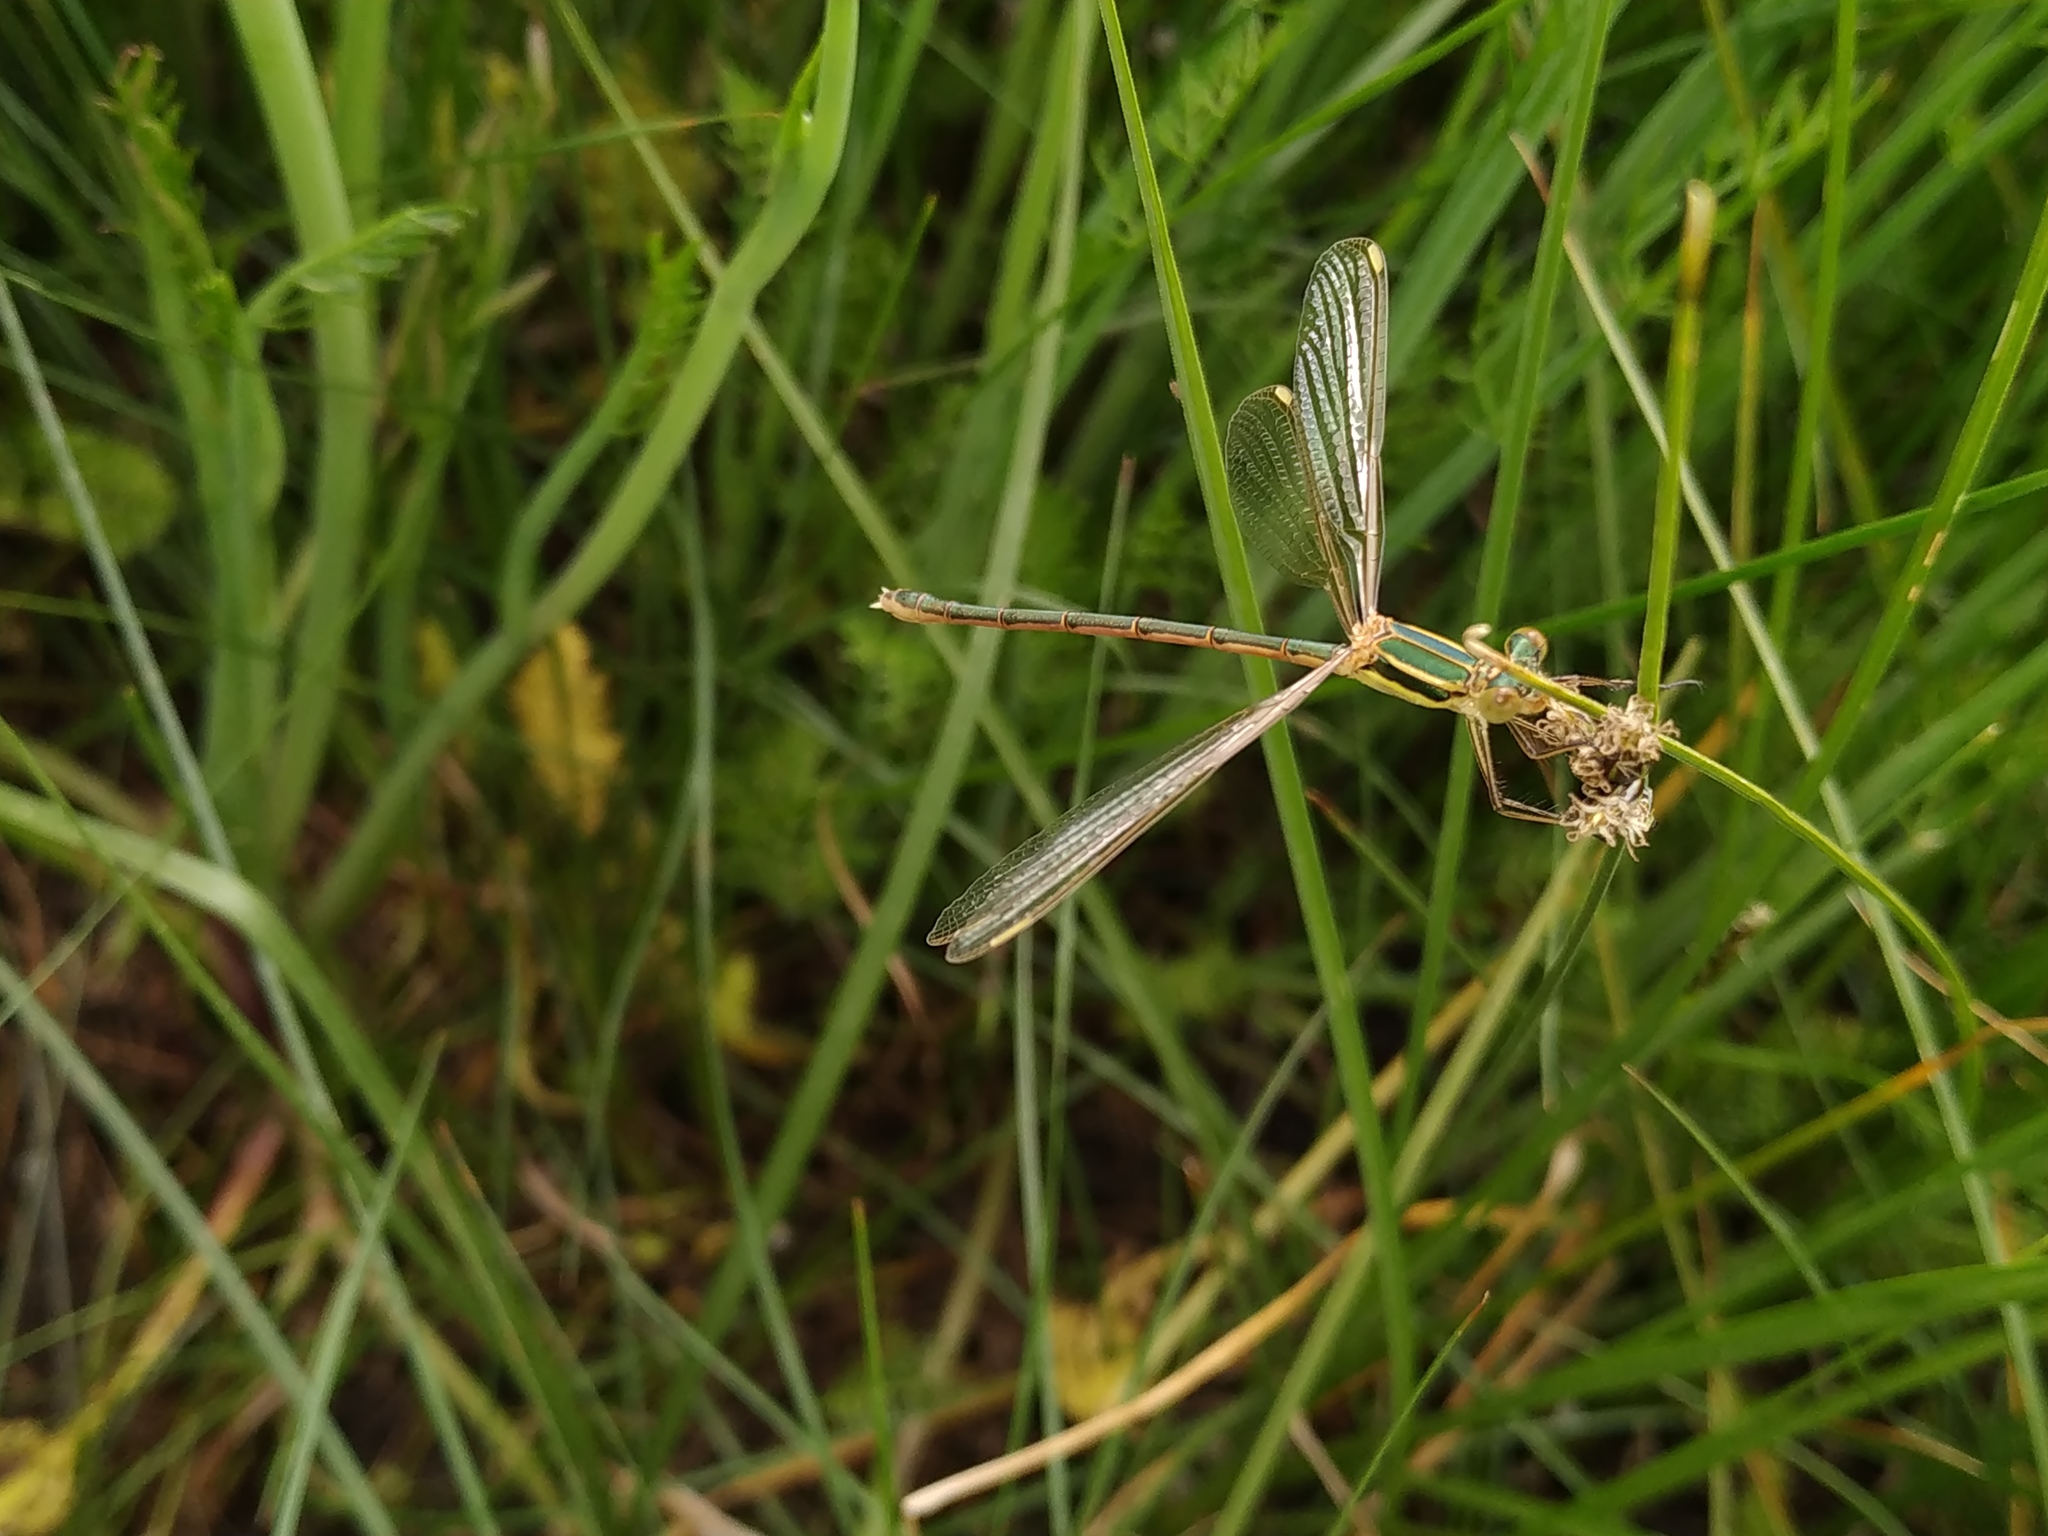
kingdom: Animalia
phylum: Arthropoda
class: Insecta
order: Odonata
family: Lestidae
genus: Lestes
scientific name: Lestes barbarus
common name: Migrant spreadwing
